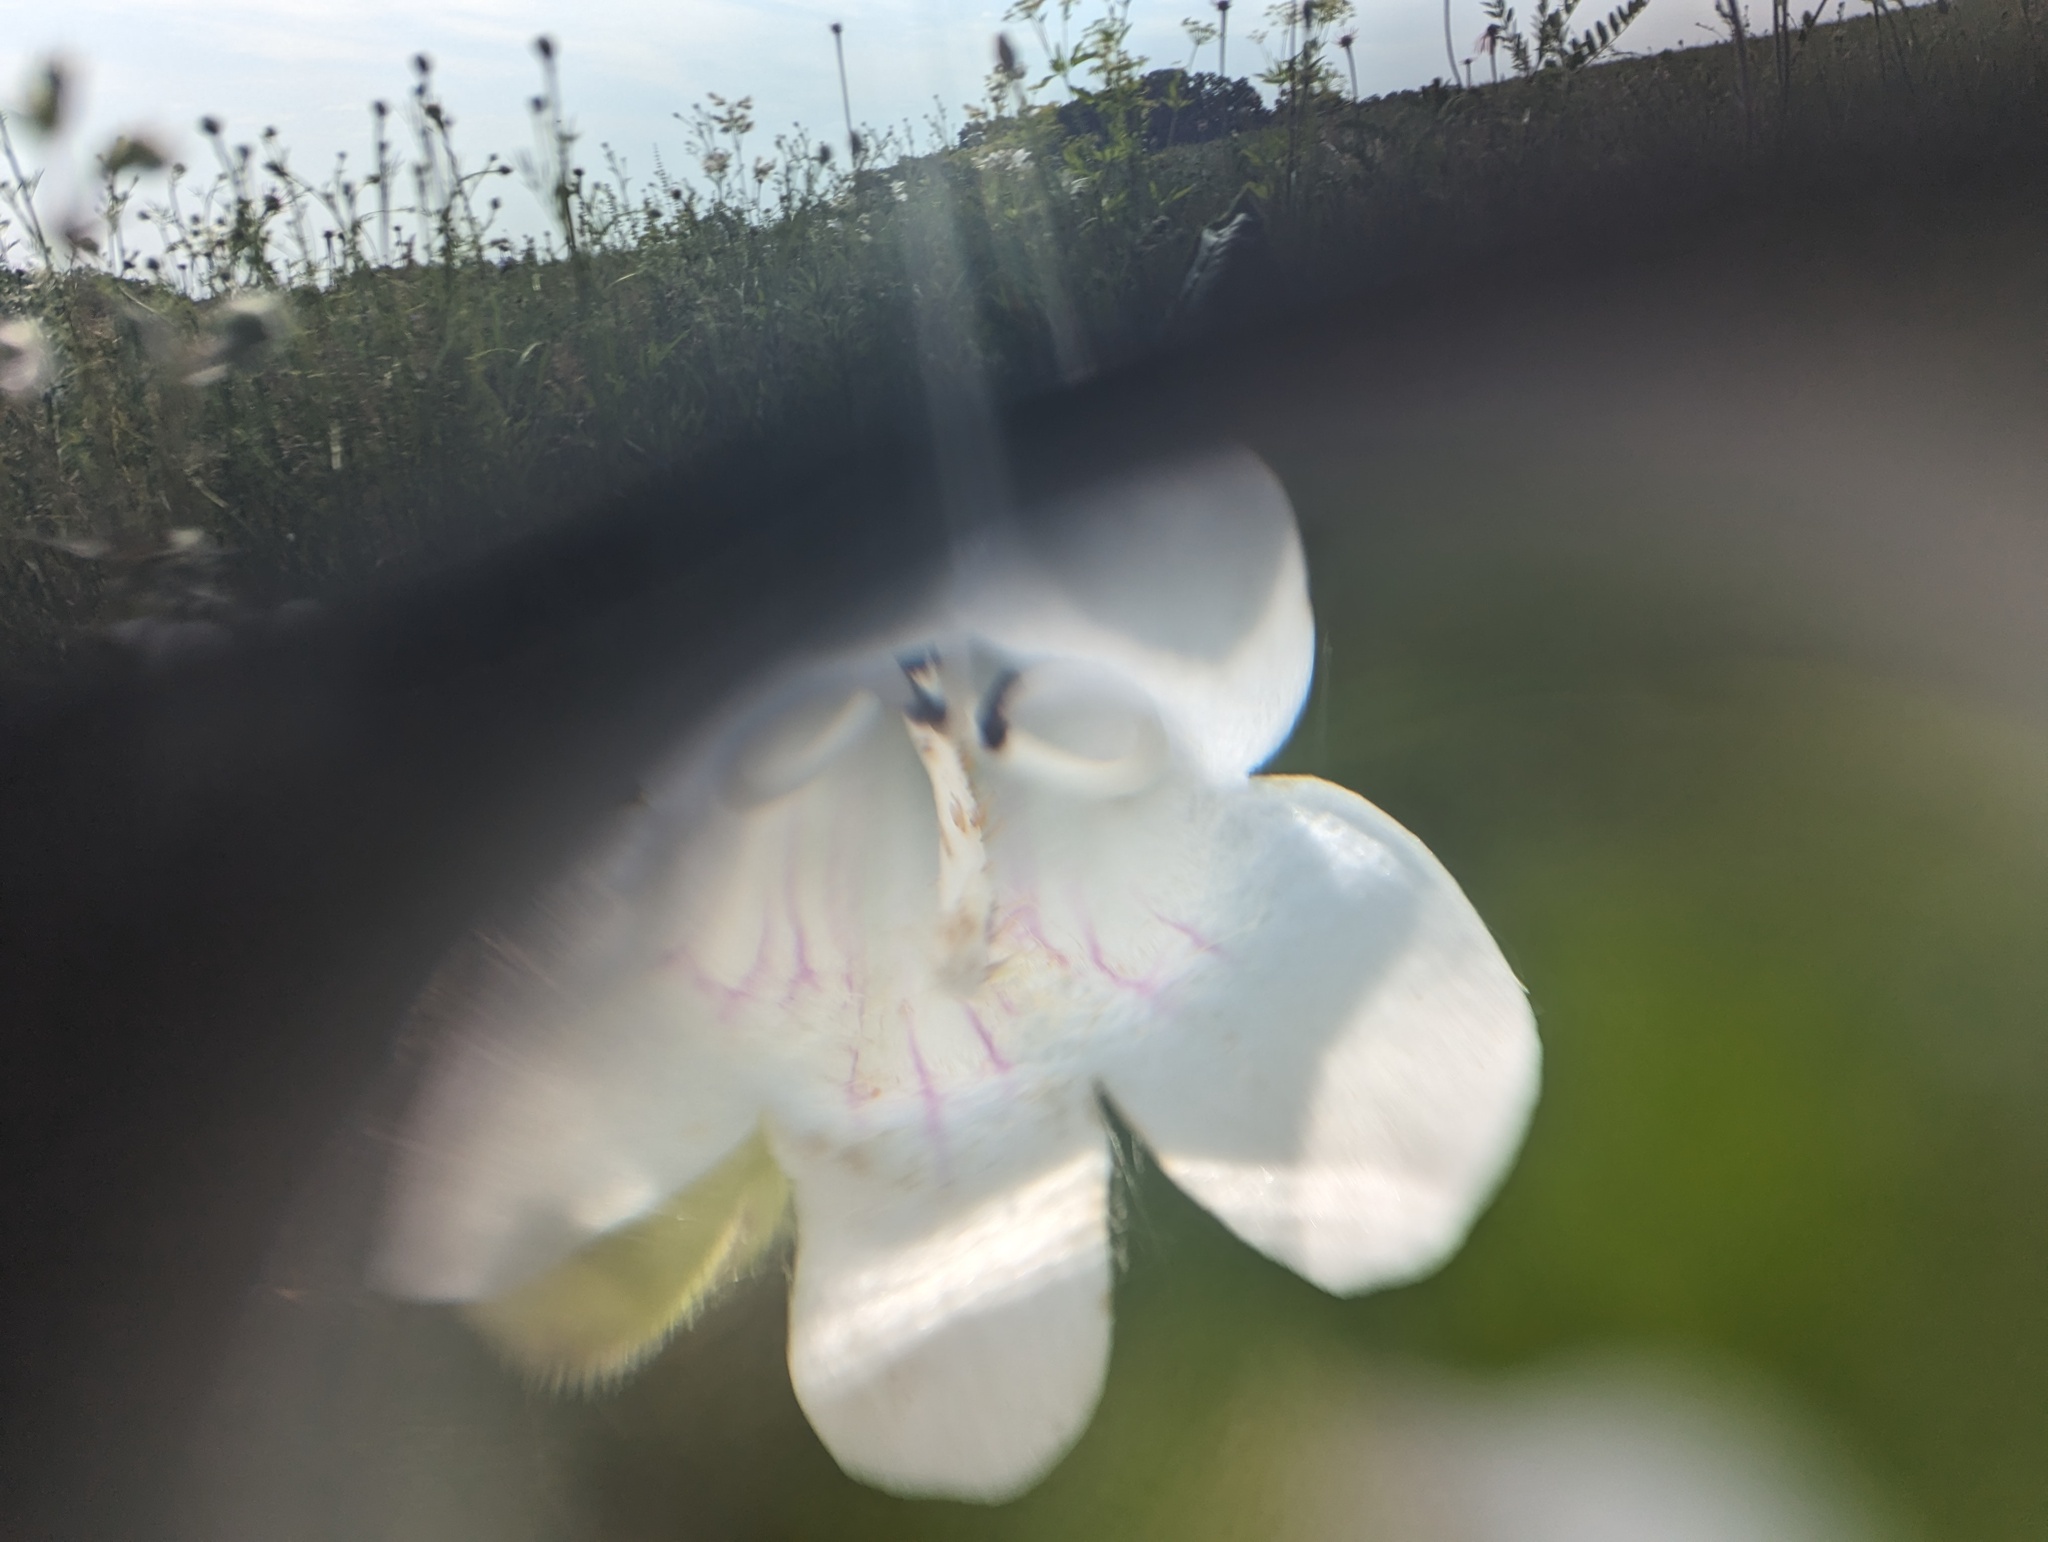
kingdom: Plantae
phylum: Tracheophyta
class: Magnoliopsida
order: Lamiales
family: Plantaginaceae
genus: Penstemon
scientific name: Penstemon digitalis
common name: Foxglove beardtongue
